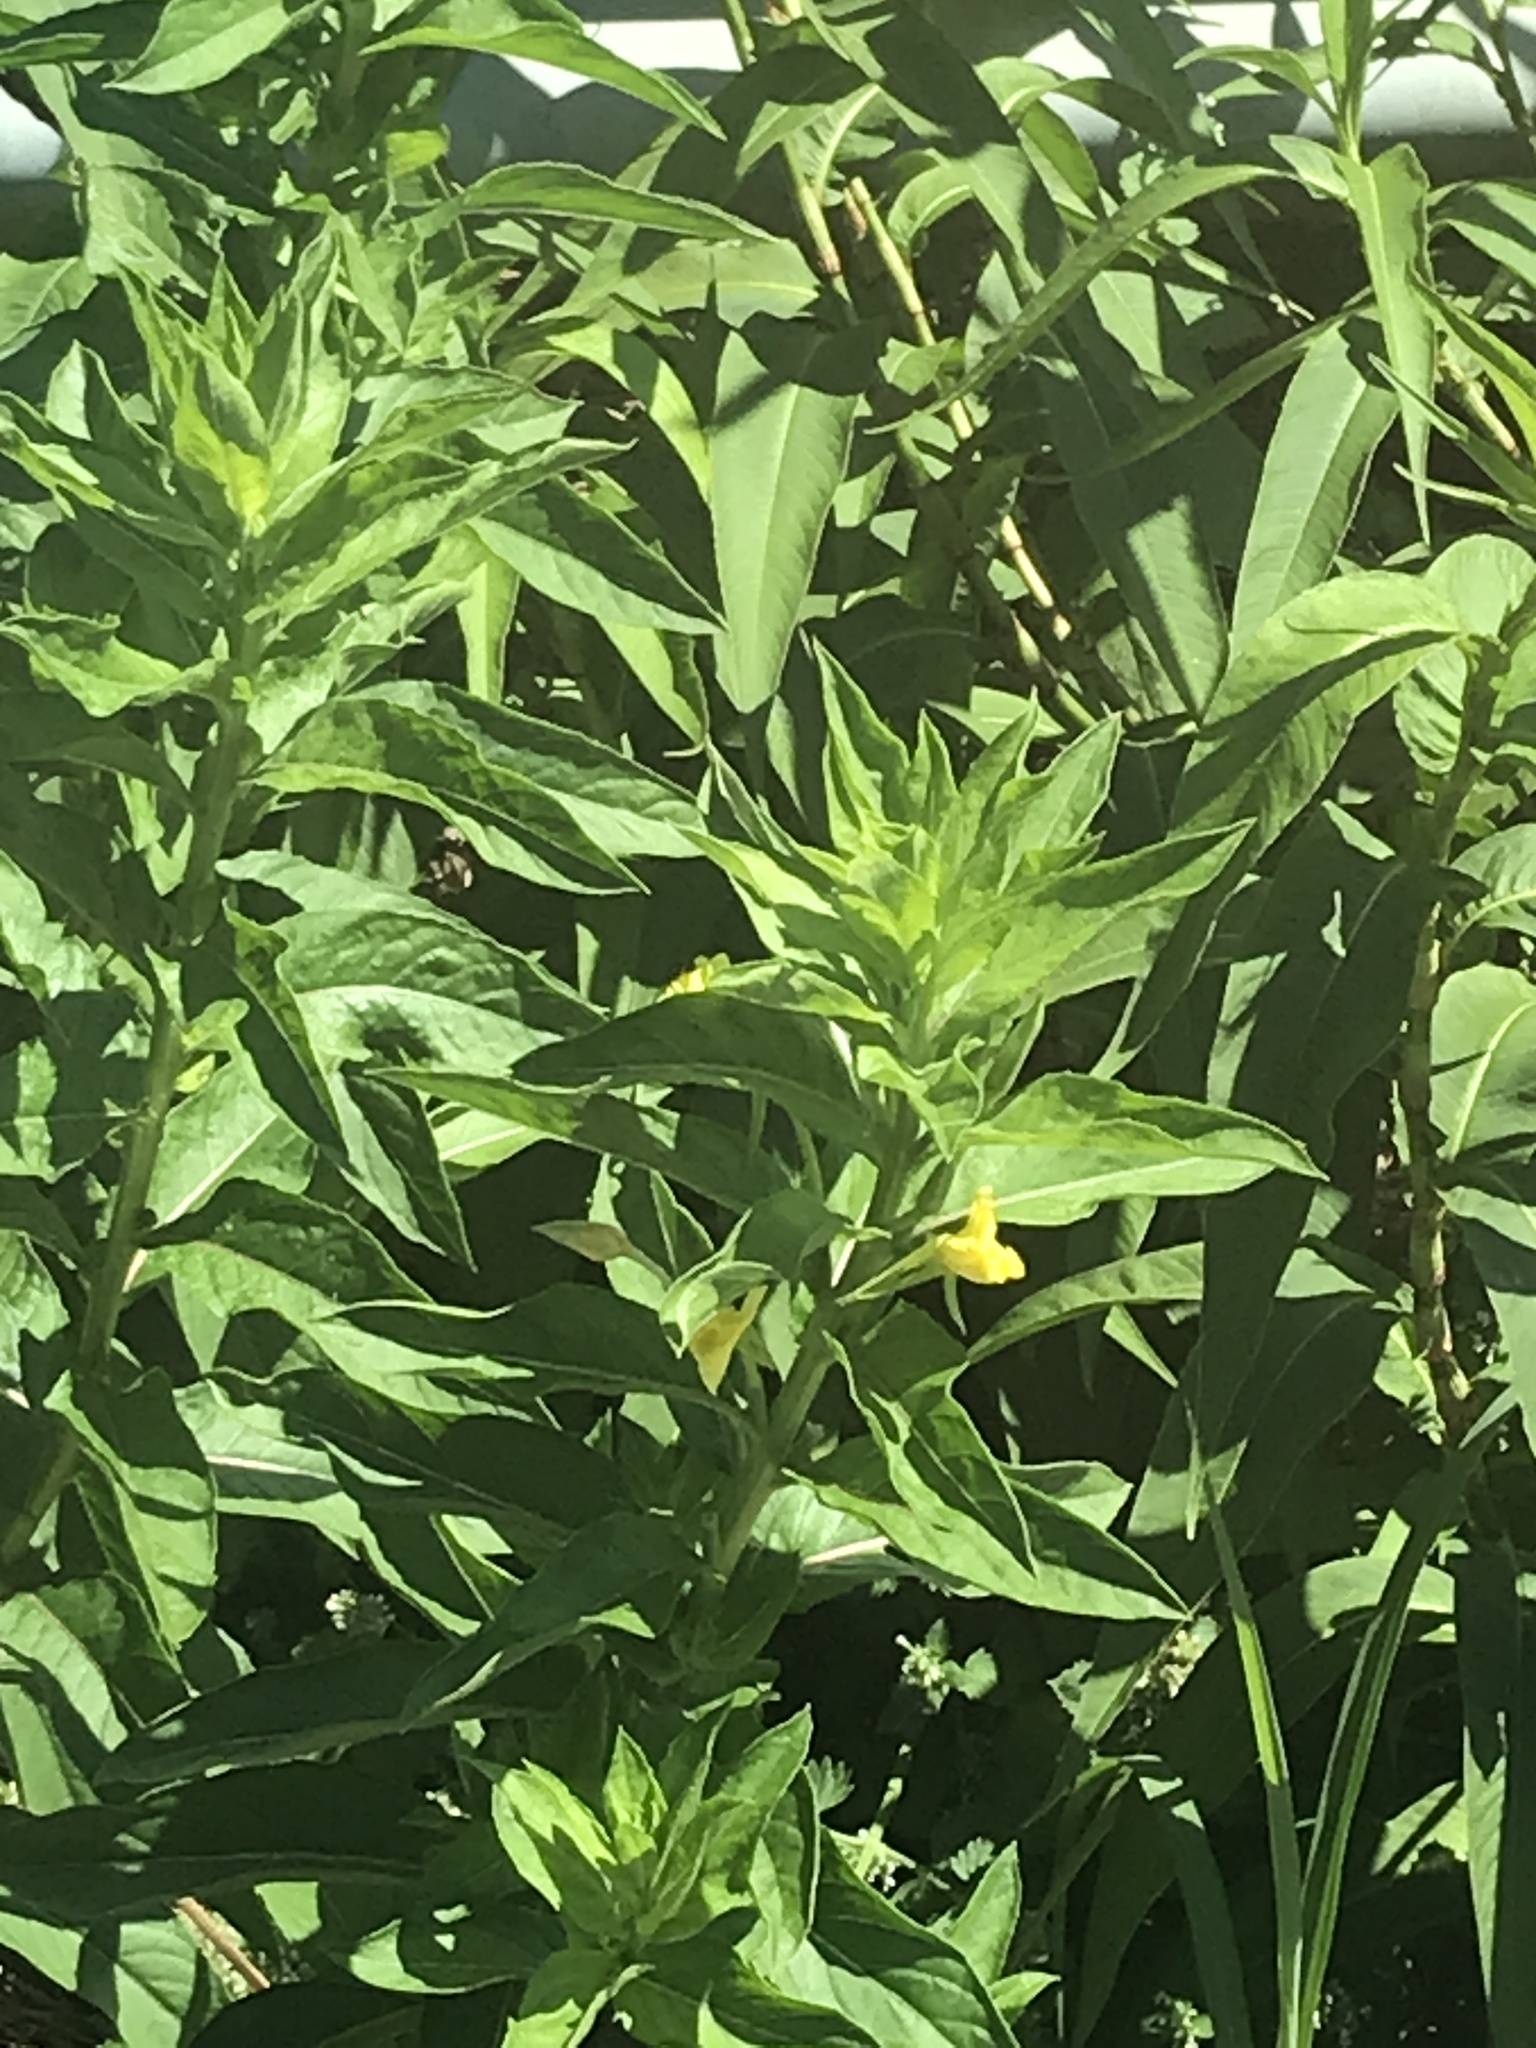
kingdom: Plantae
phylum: Tracheophyta
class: Magnoliopsida
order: Myrtales
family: Onagraceae
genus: Oenothera
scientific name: Oenothera biennis
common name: Common evening-primrose
